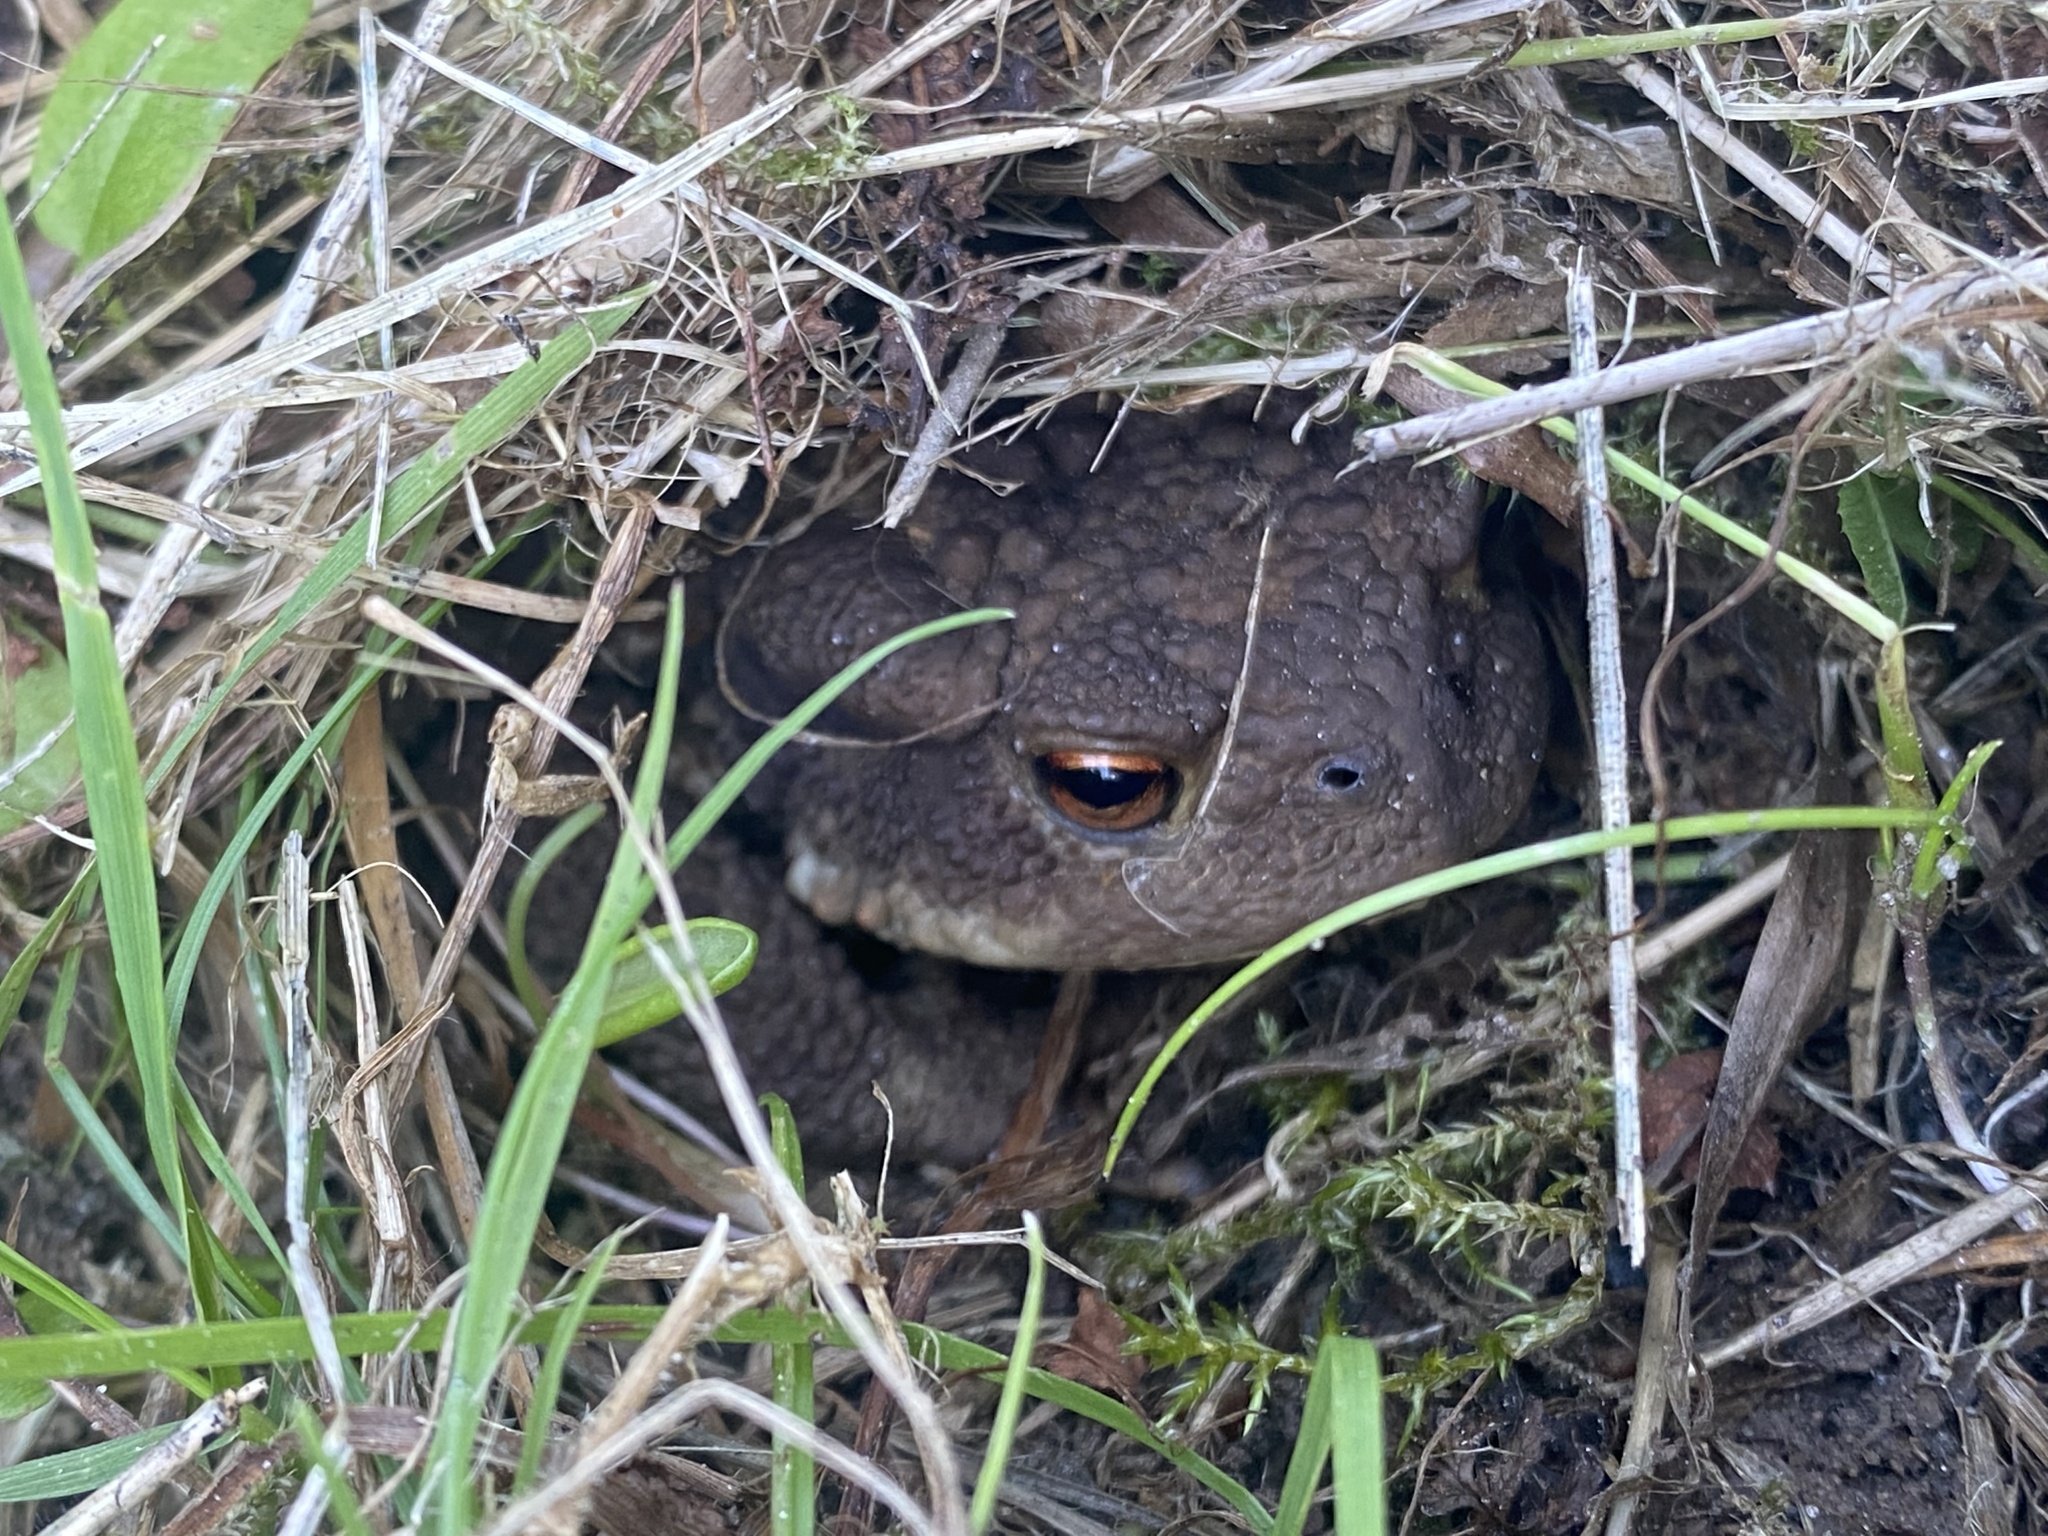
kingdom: Animalia
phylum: Chordata
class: Amphibia
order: Anura
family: Bufonidae
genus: Bufo
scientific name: Bufo bufo
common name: Common toad
